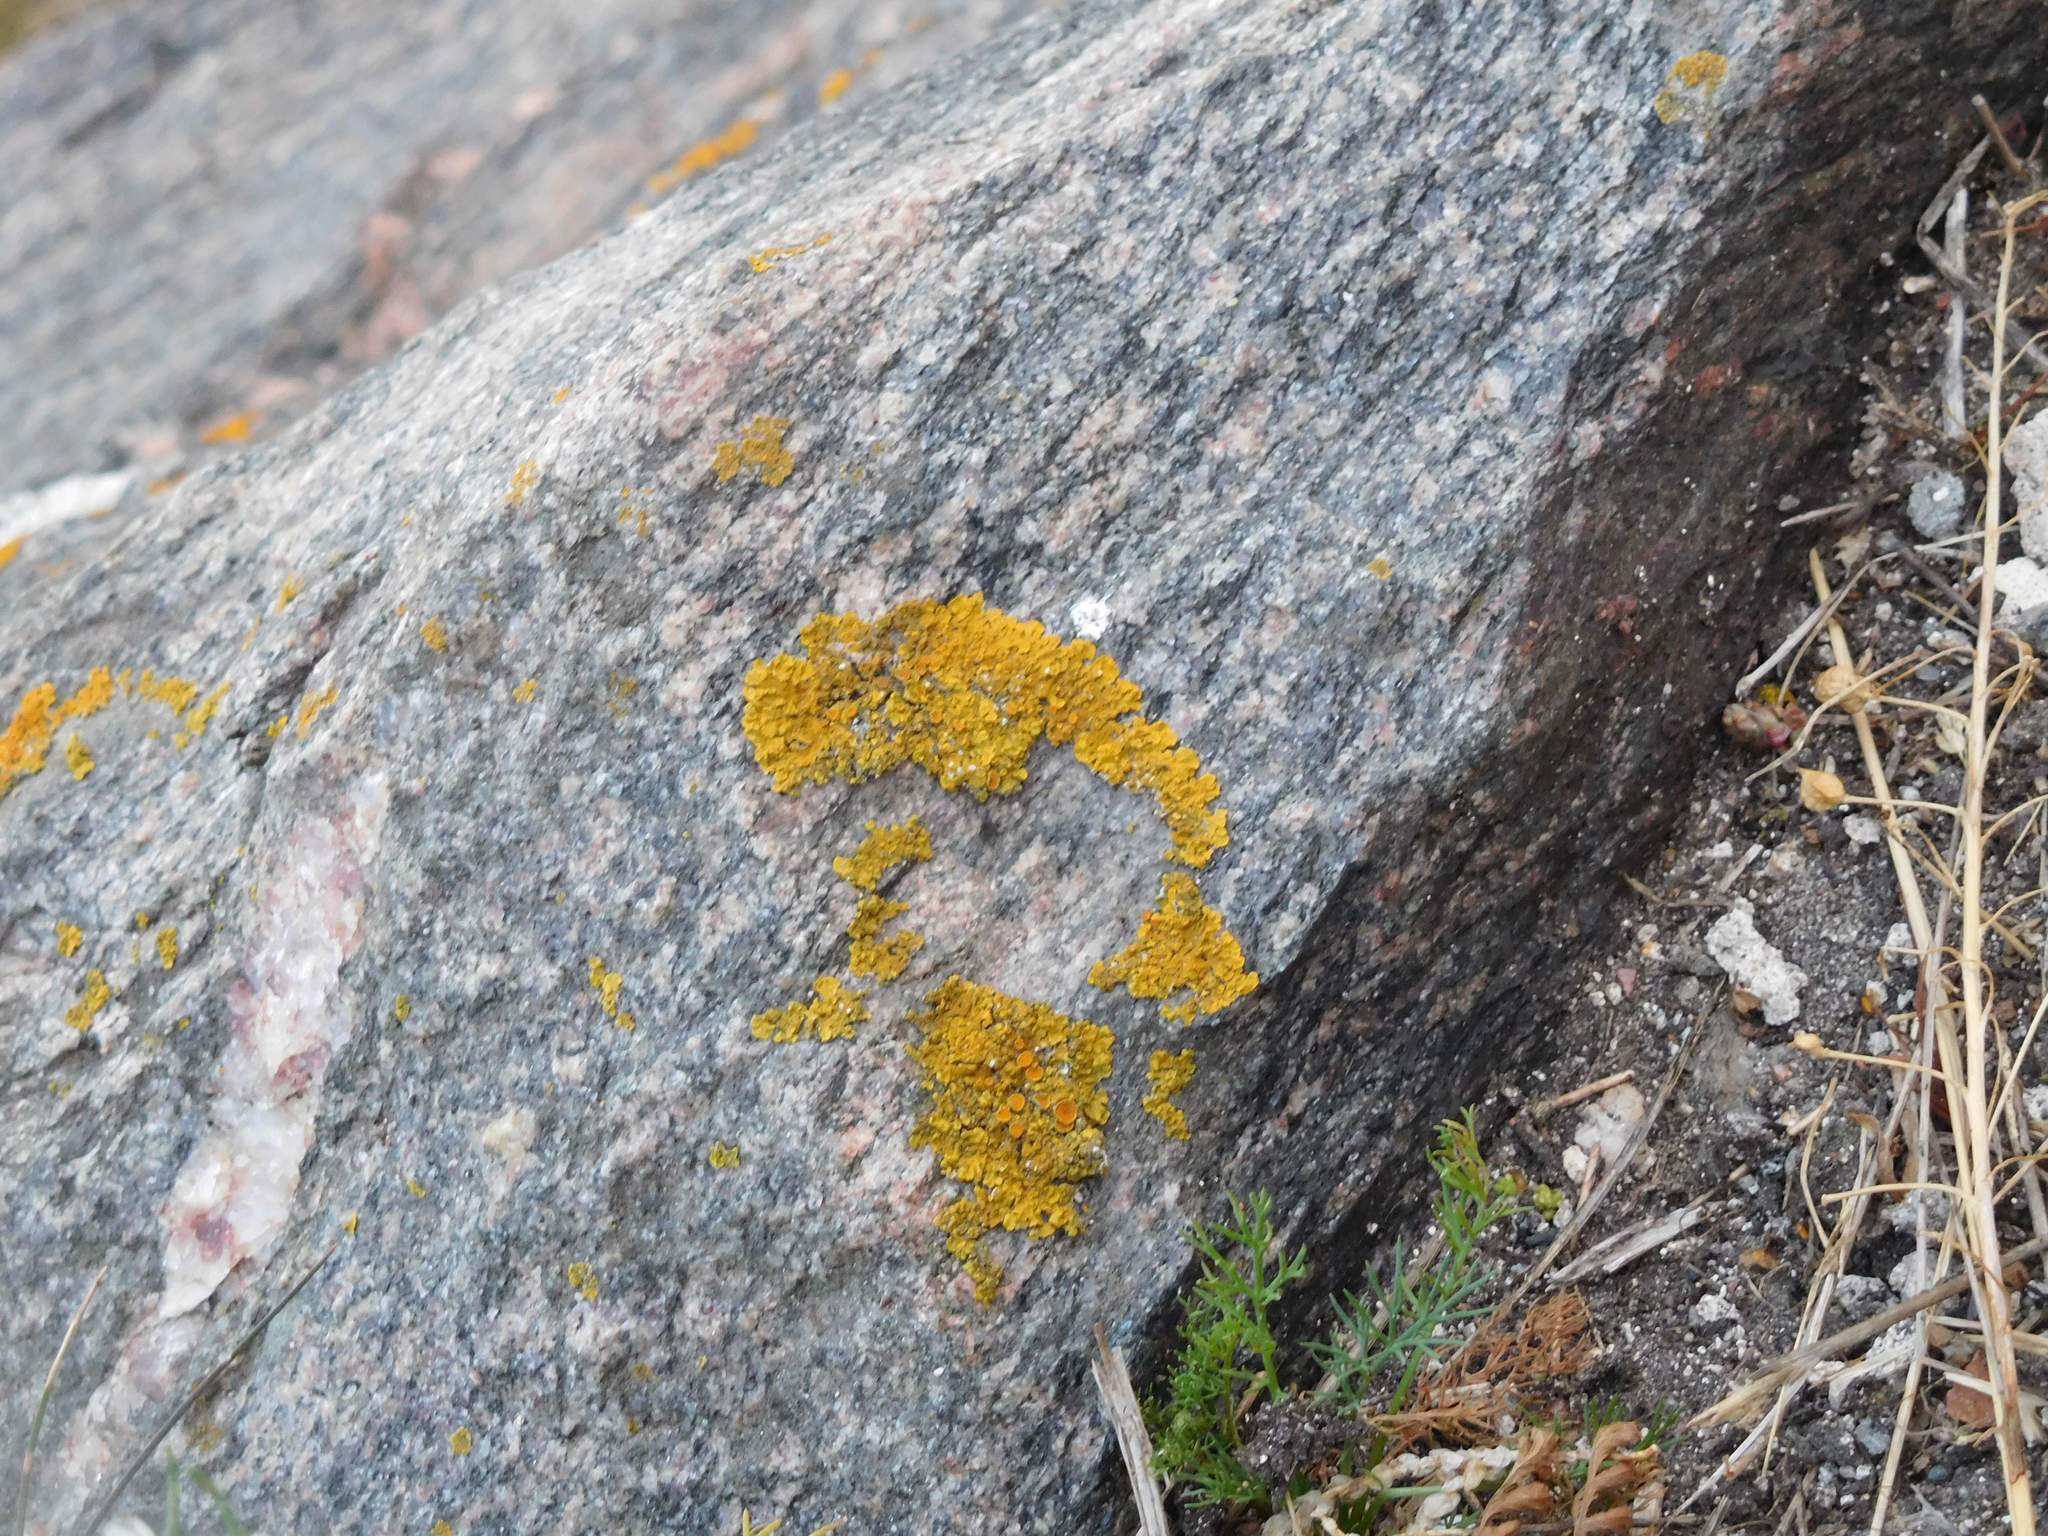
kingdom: Fungi
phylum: Ascomycota
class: Lecanoromycetes
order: Teloschistales
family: Teloschistaceae
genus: Xanthoria
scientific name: Xanthoria parietina
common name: Common orange lichen
